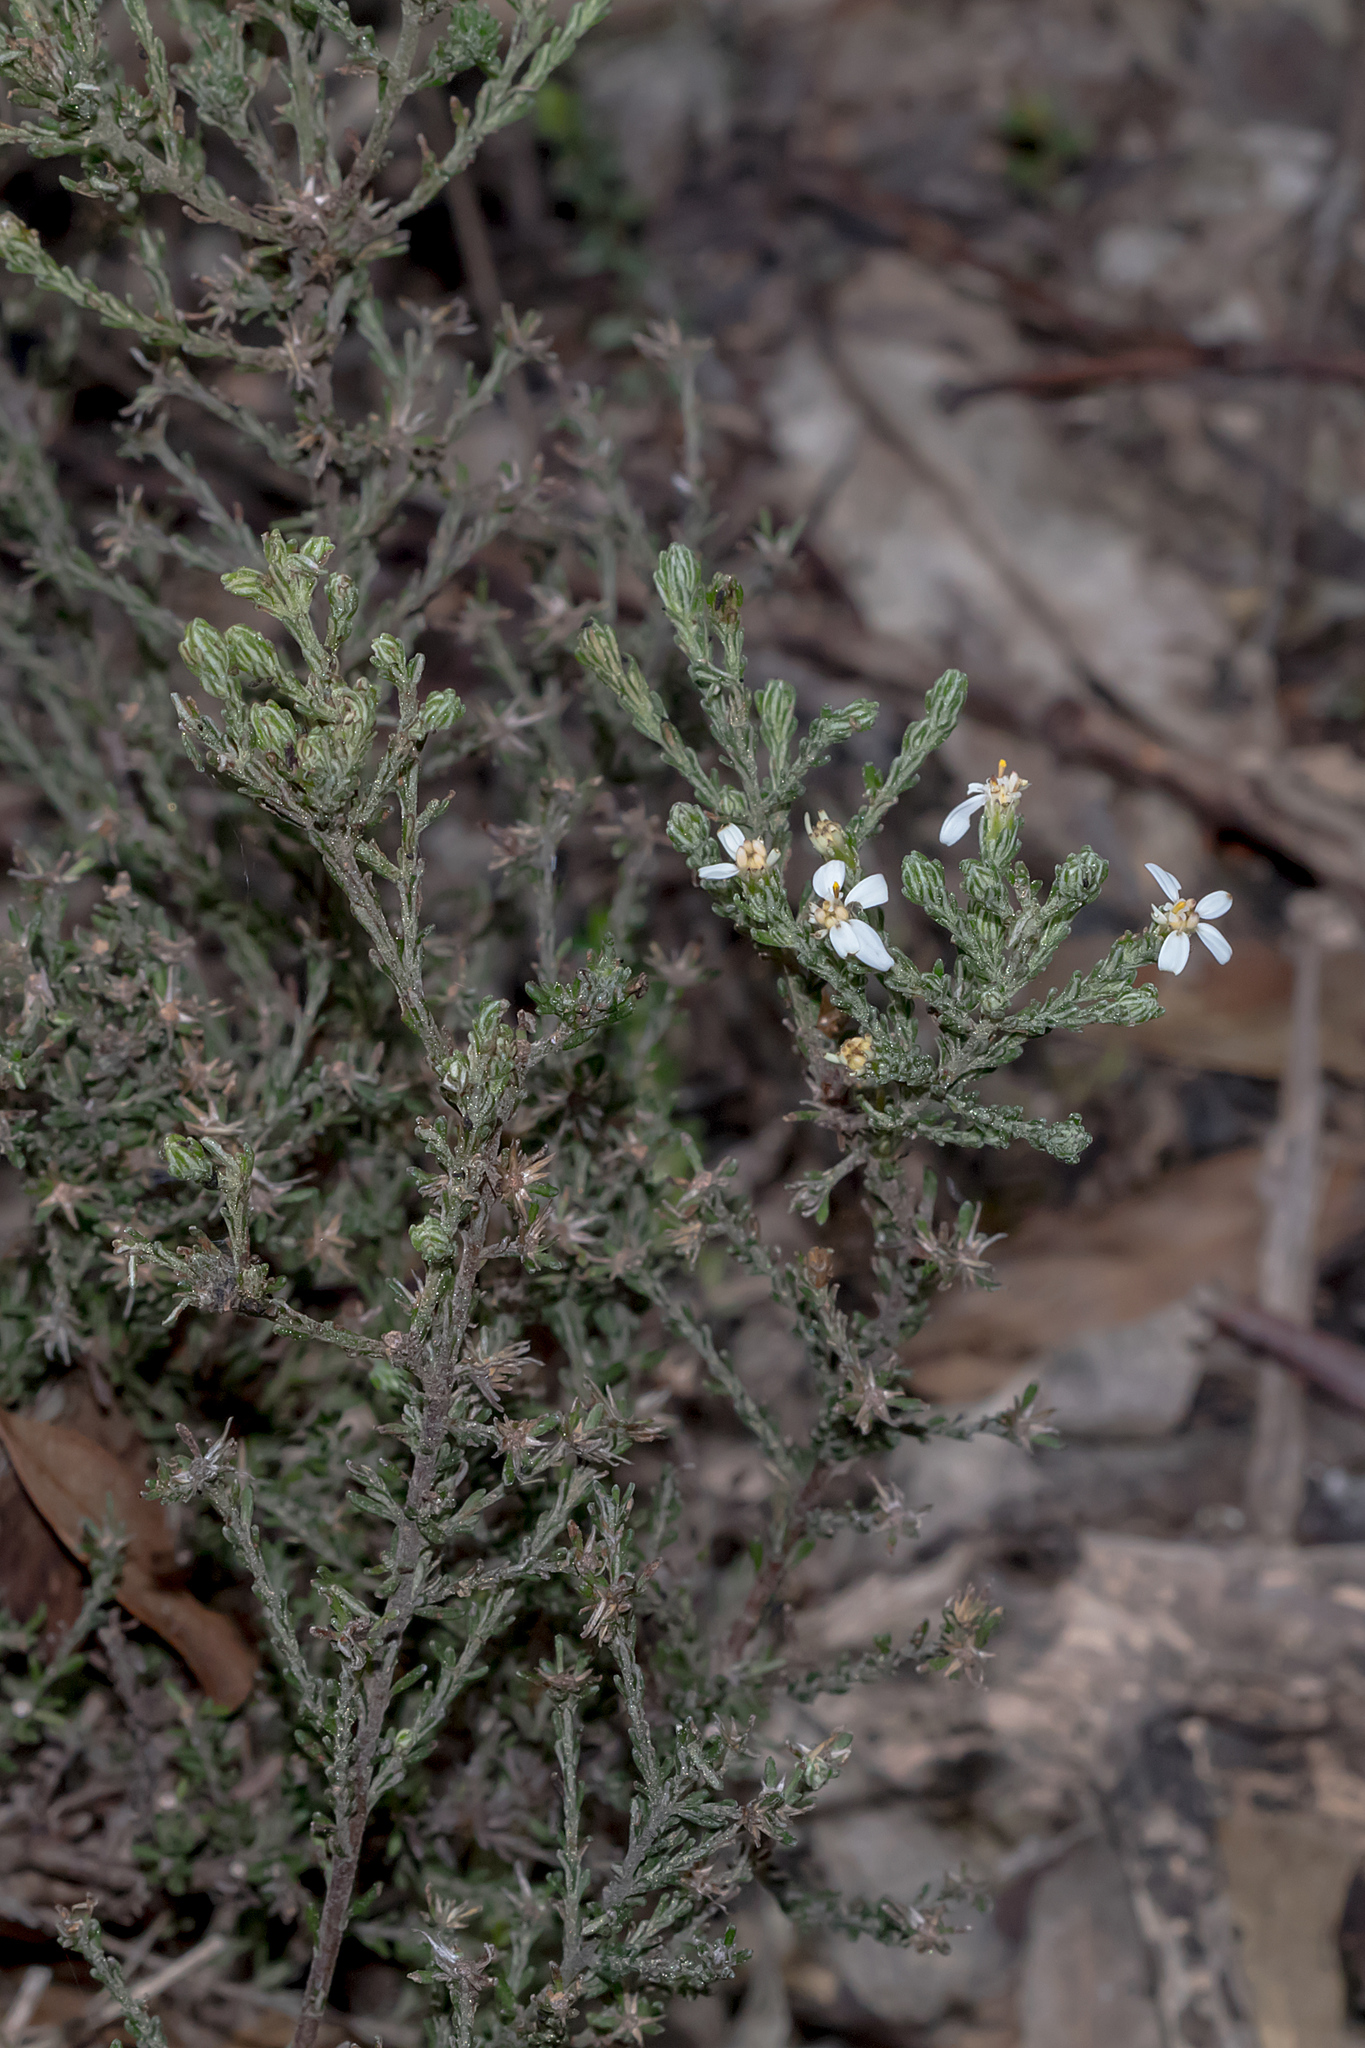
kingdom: Plantae
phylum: Tracheophyta
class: Magnoliopsida
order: Asterales
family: Asteraceae
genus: Olearia
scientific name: Olearia lanuginosa
